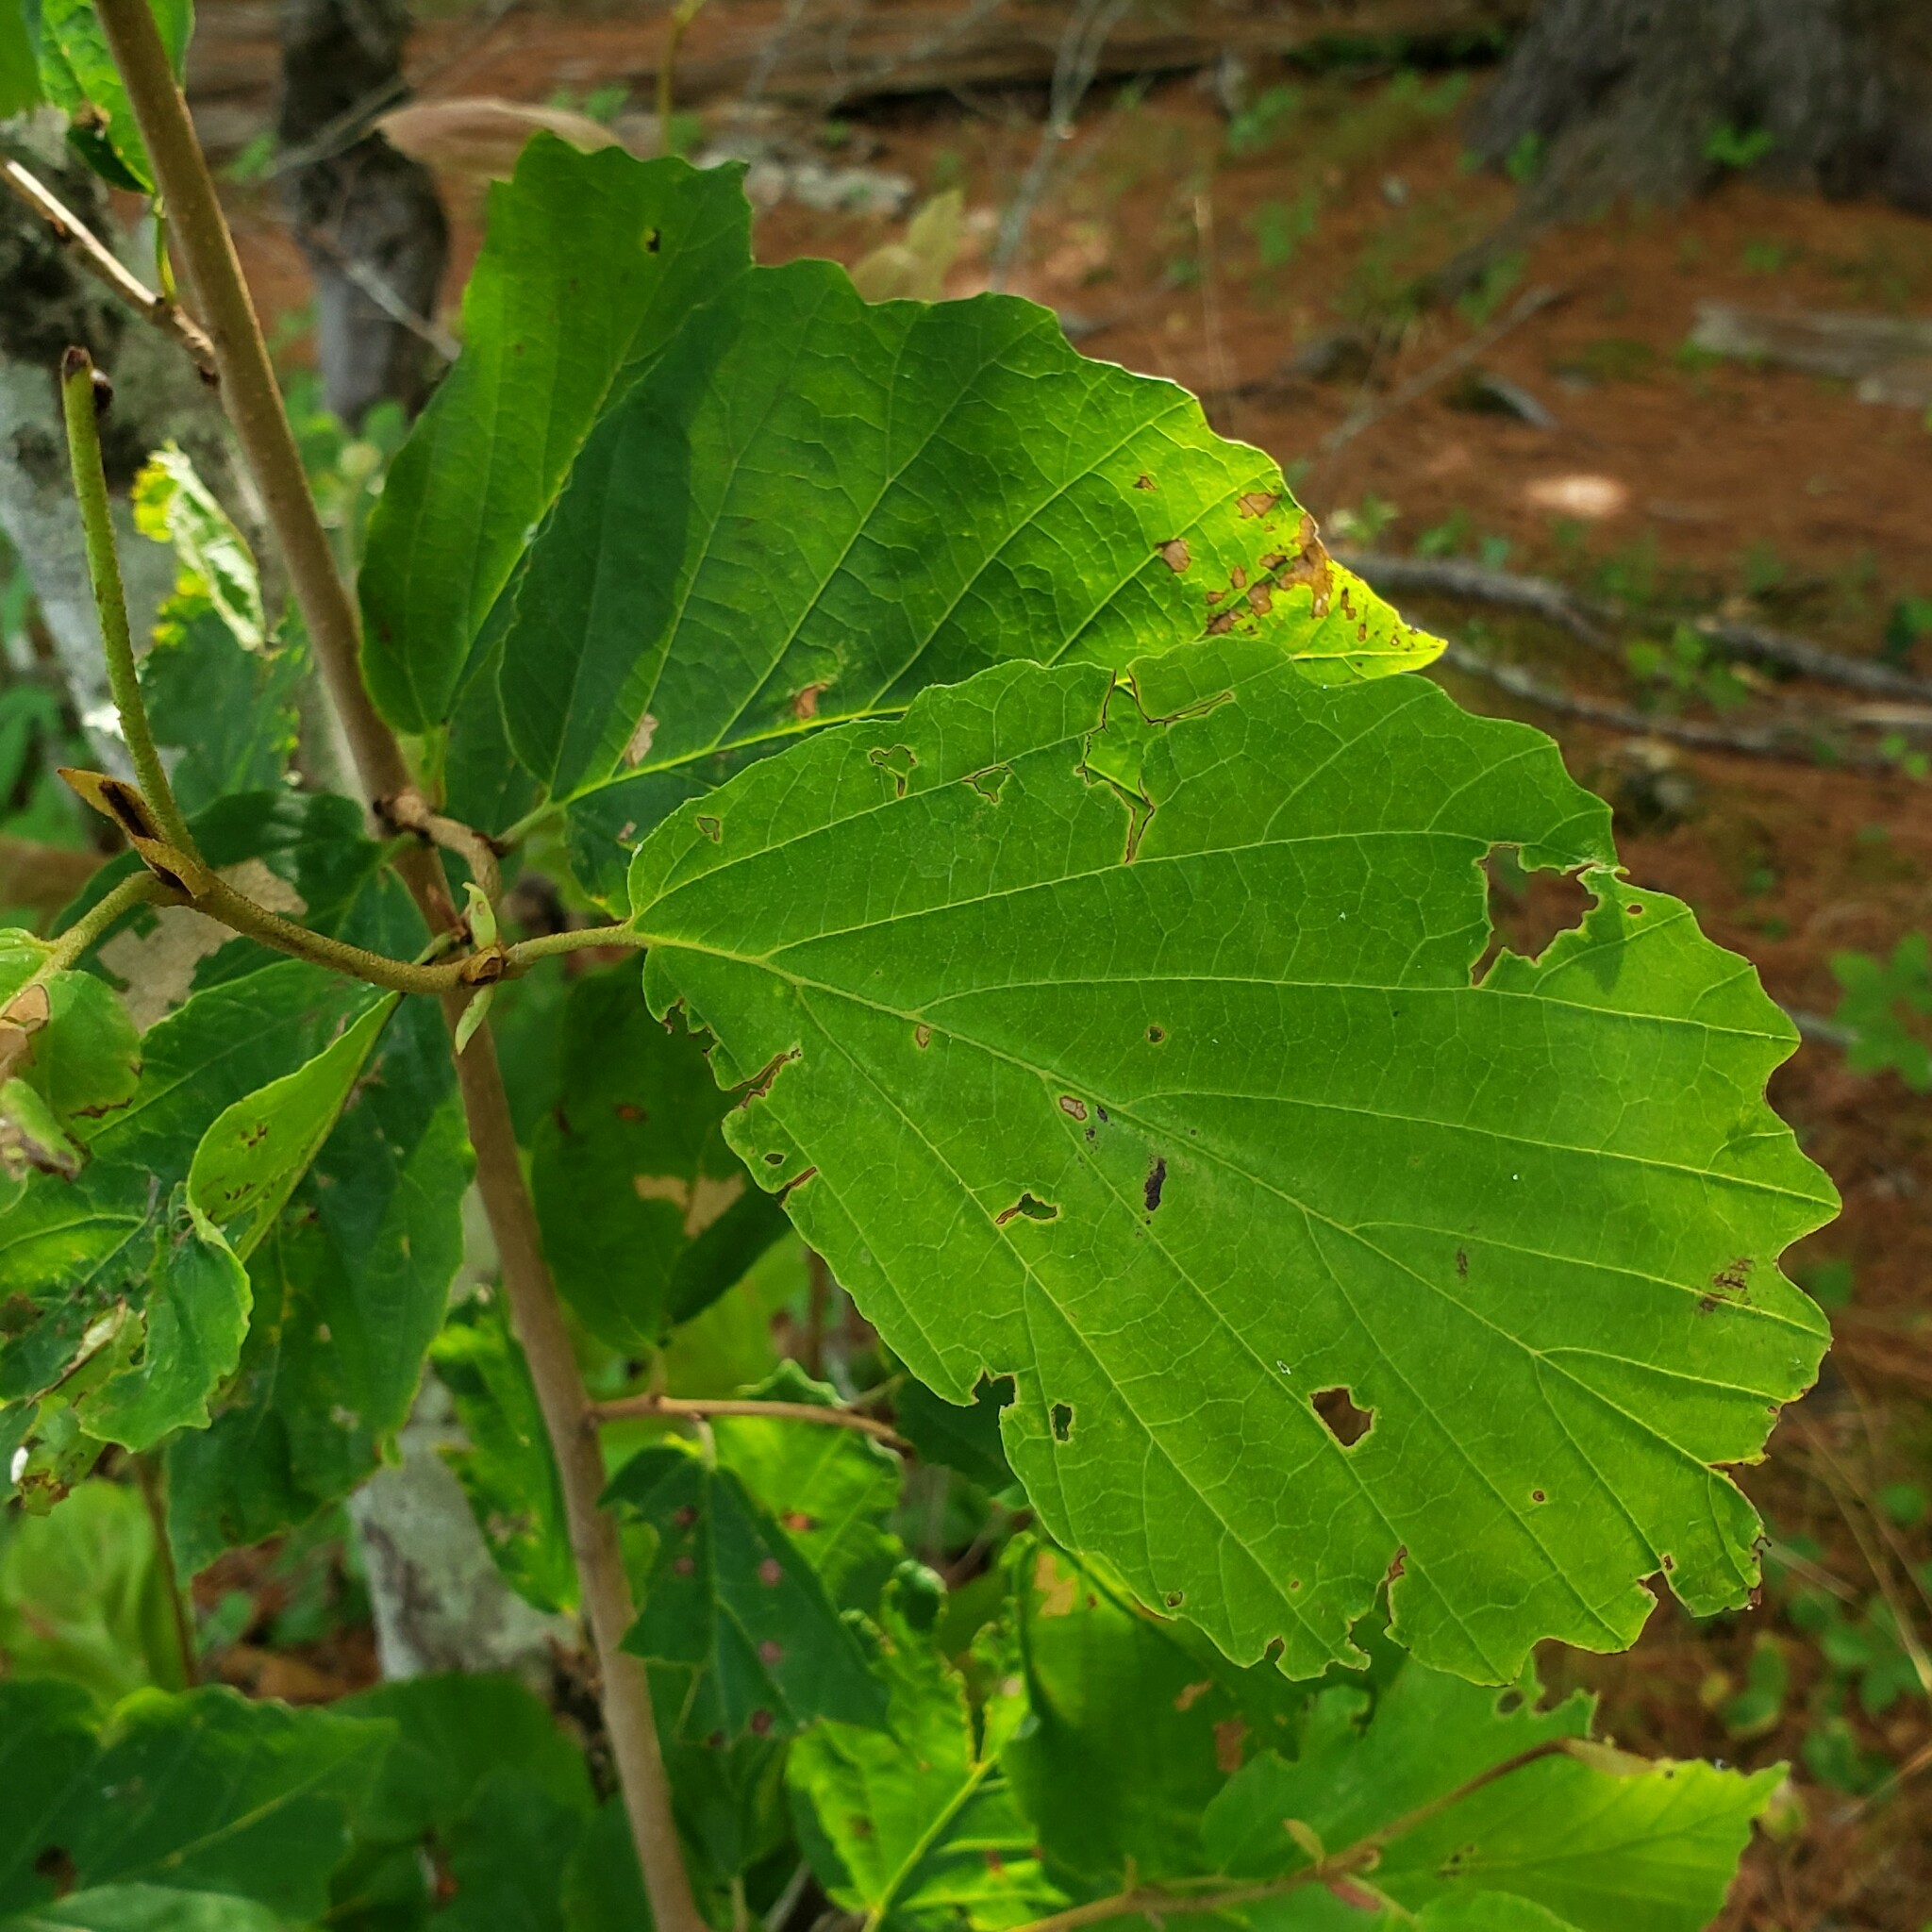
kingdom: Plantae
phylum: Tracheophyta
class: Magnoliopsida
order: Saxifragales
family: Hamamelidaceae
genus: Hamamelis
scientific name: Hamamelis virginiana
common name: Witch-hazel
